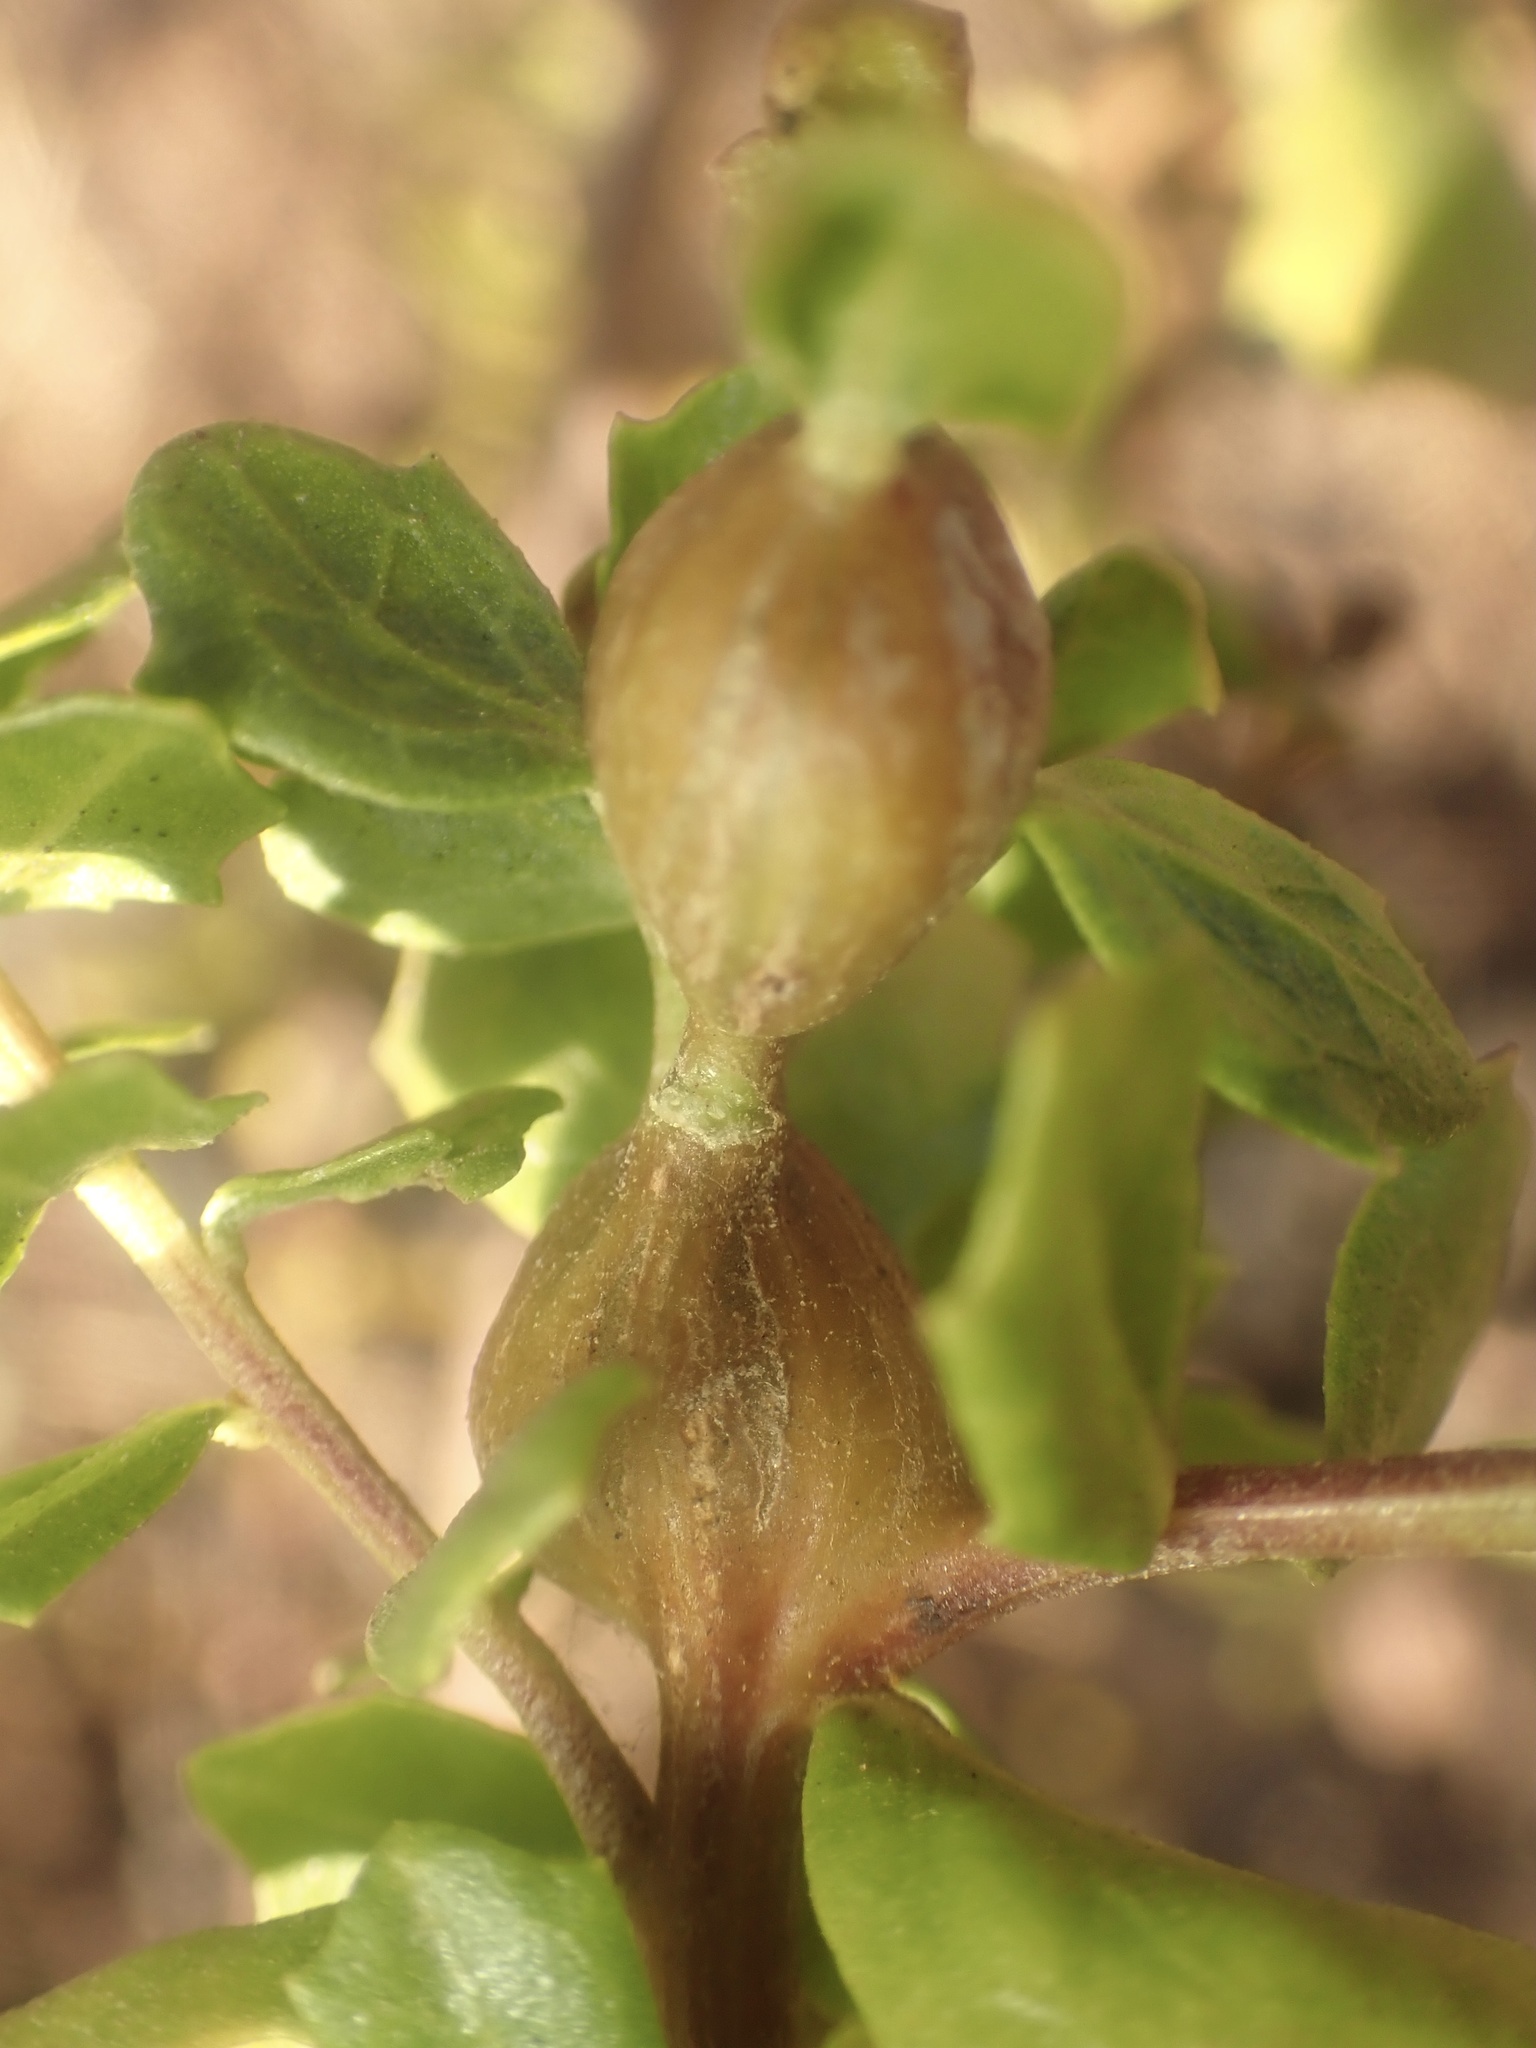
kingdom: Animalia
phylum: Arthropoda
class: Insecta
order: Lepidoptera
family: Gelechiidae
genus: Gnorimoschema
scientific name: Gnorimoschema baccharisella
